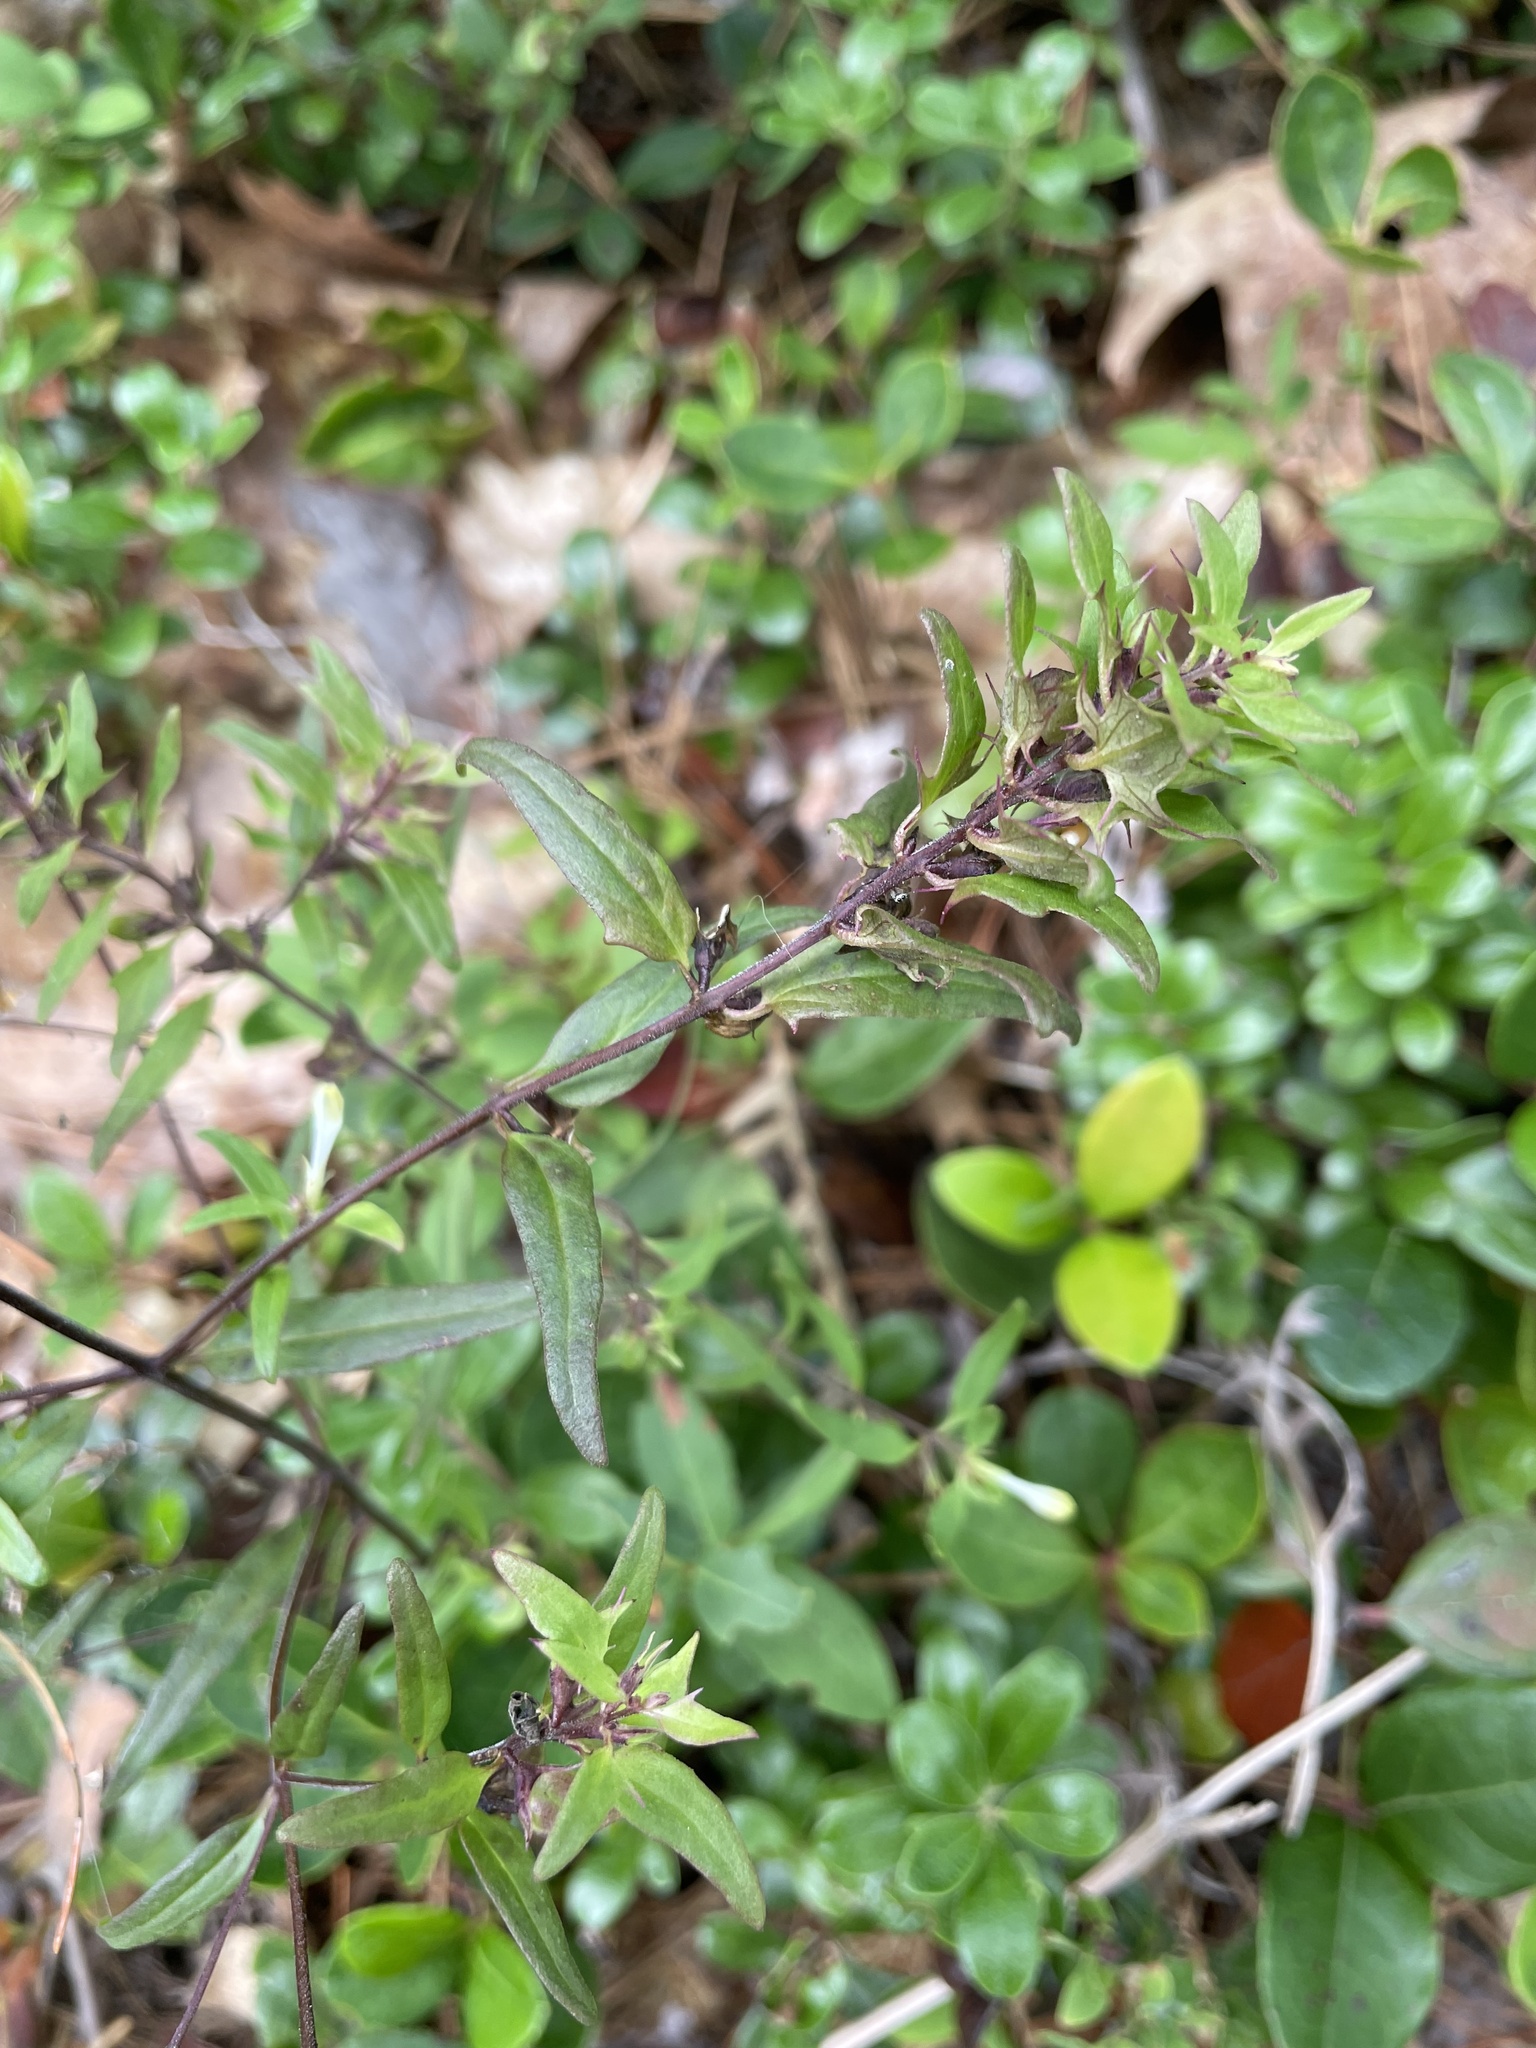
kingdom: Plantae
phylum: Tracheophyta
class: Magnoliopsida
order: Lamiales
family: Orobanchaceae
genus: Melampyrum
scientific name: Melampyrum lineare
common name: American cow-wheat
